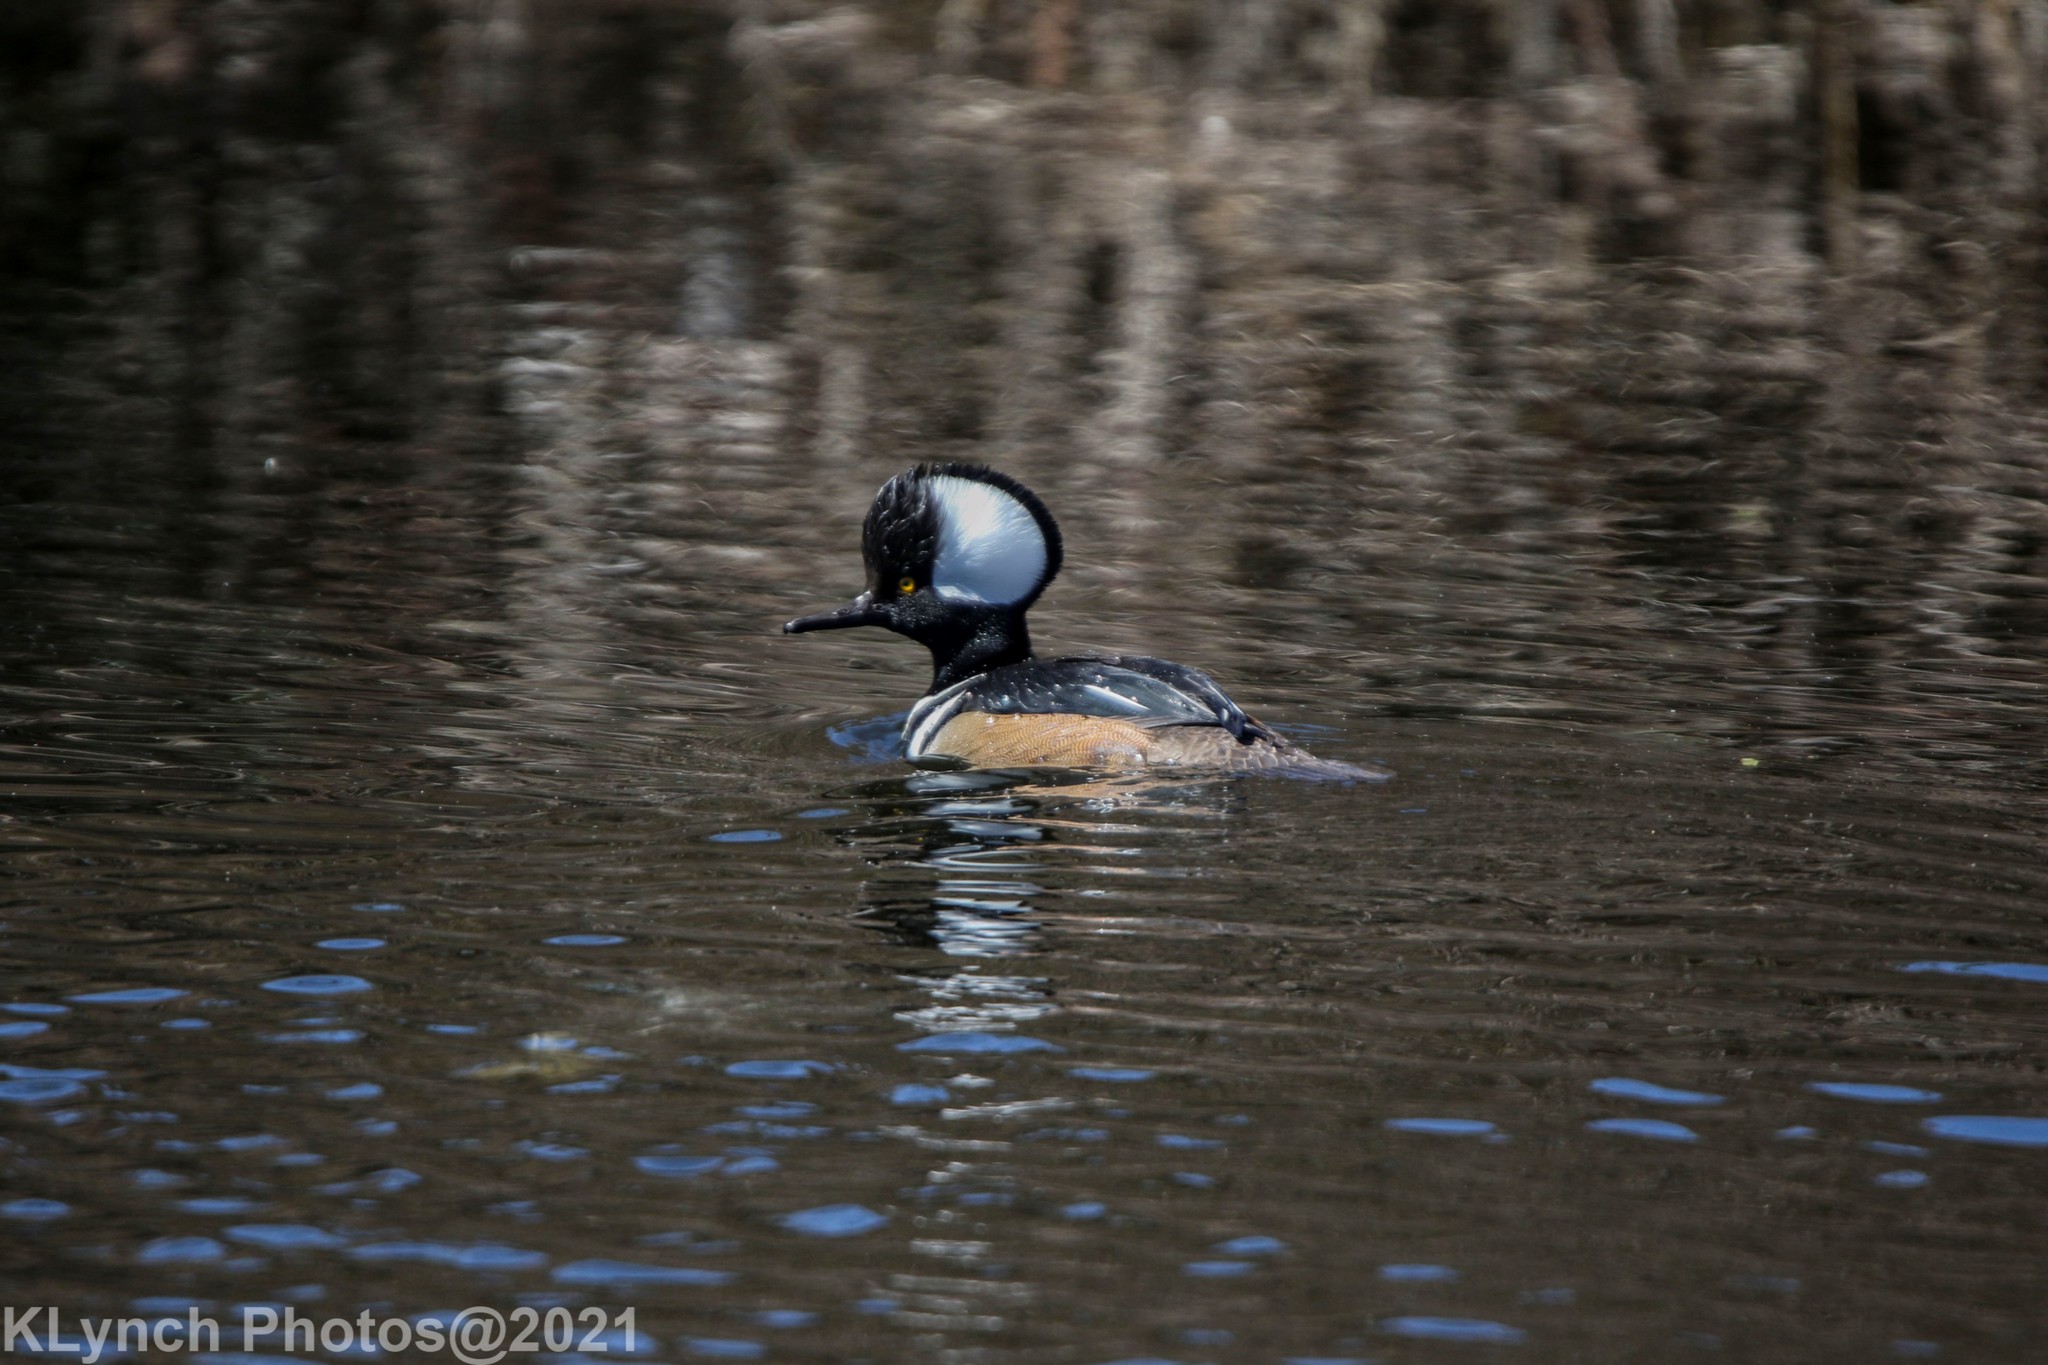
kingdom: Animalia
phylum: Chordata
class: Aves
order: Anseriformes
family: Anatidae
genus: Lophodytes
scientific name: Lophodytes cucullatus
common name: Hooded merganser
